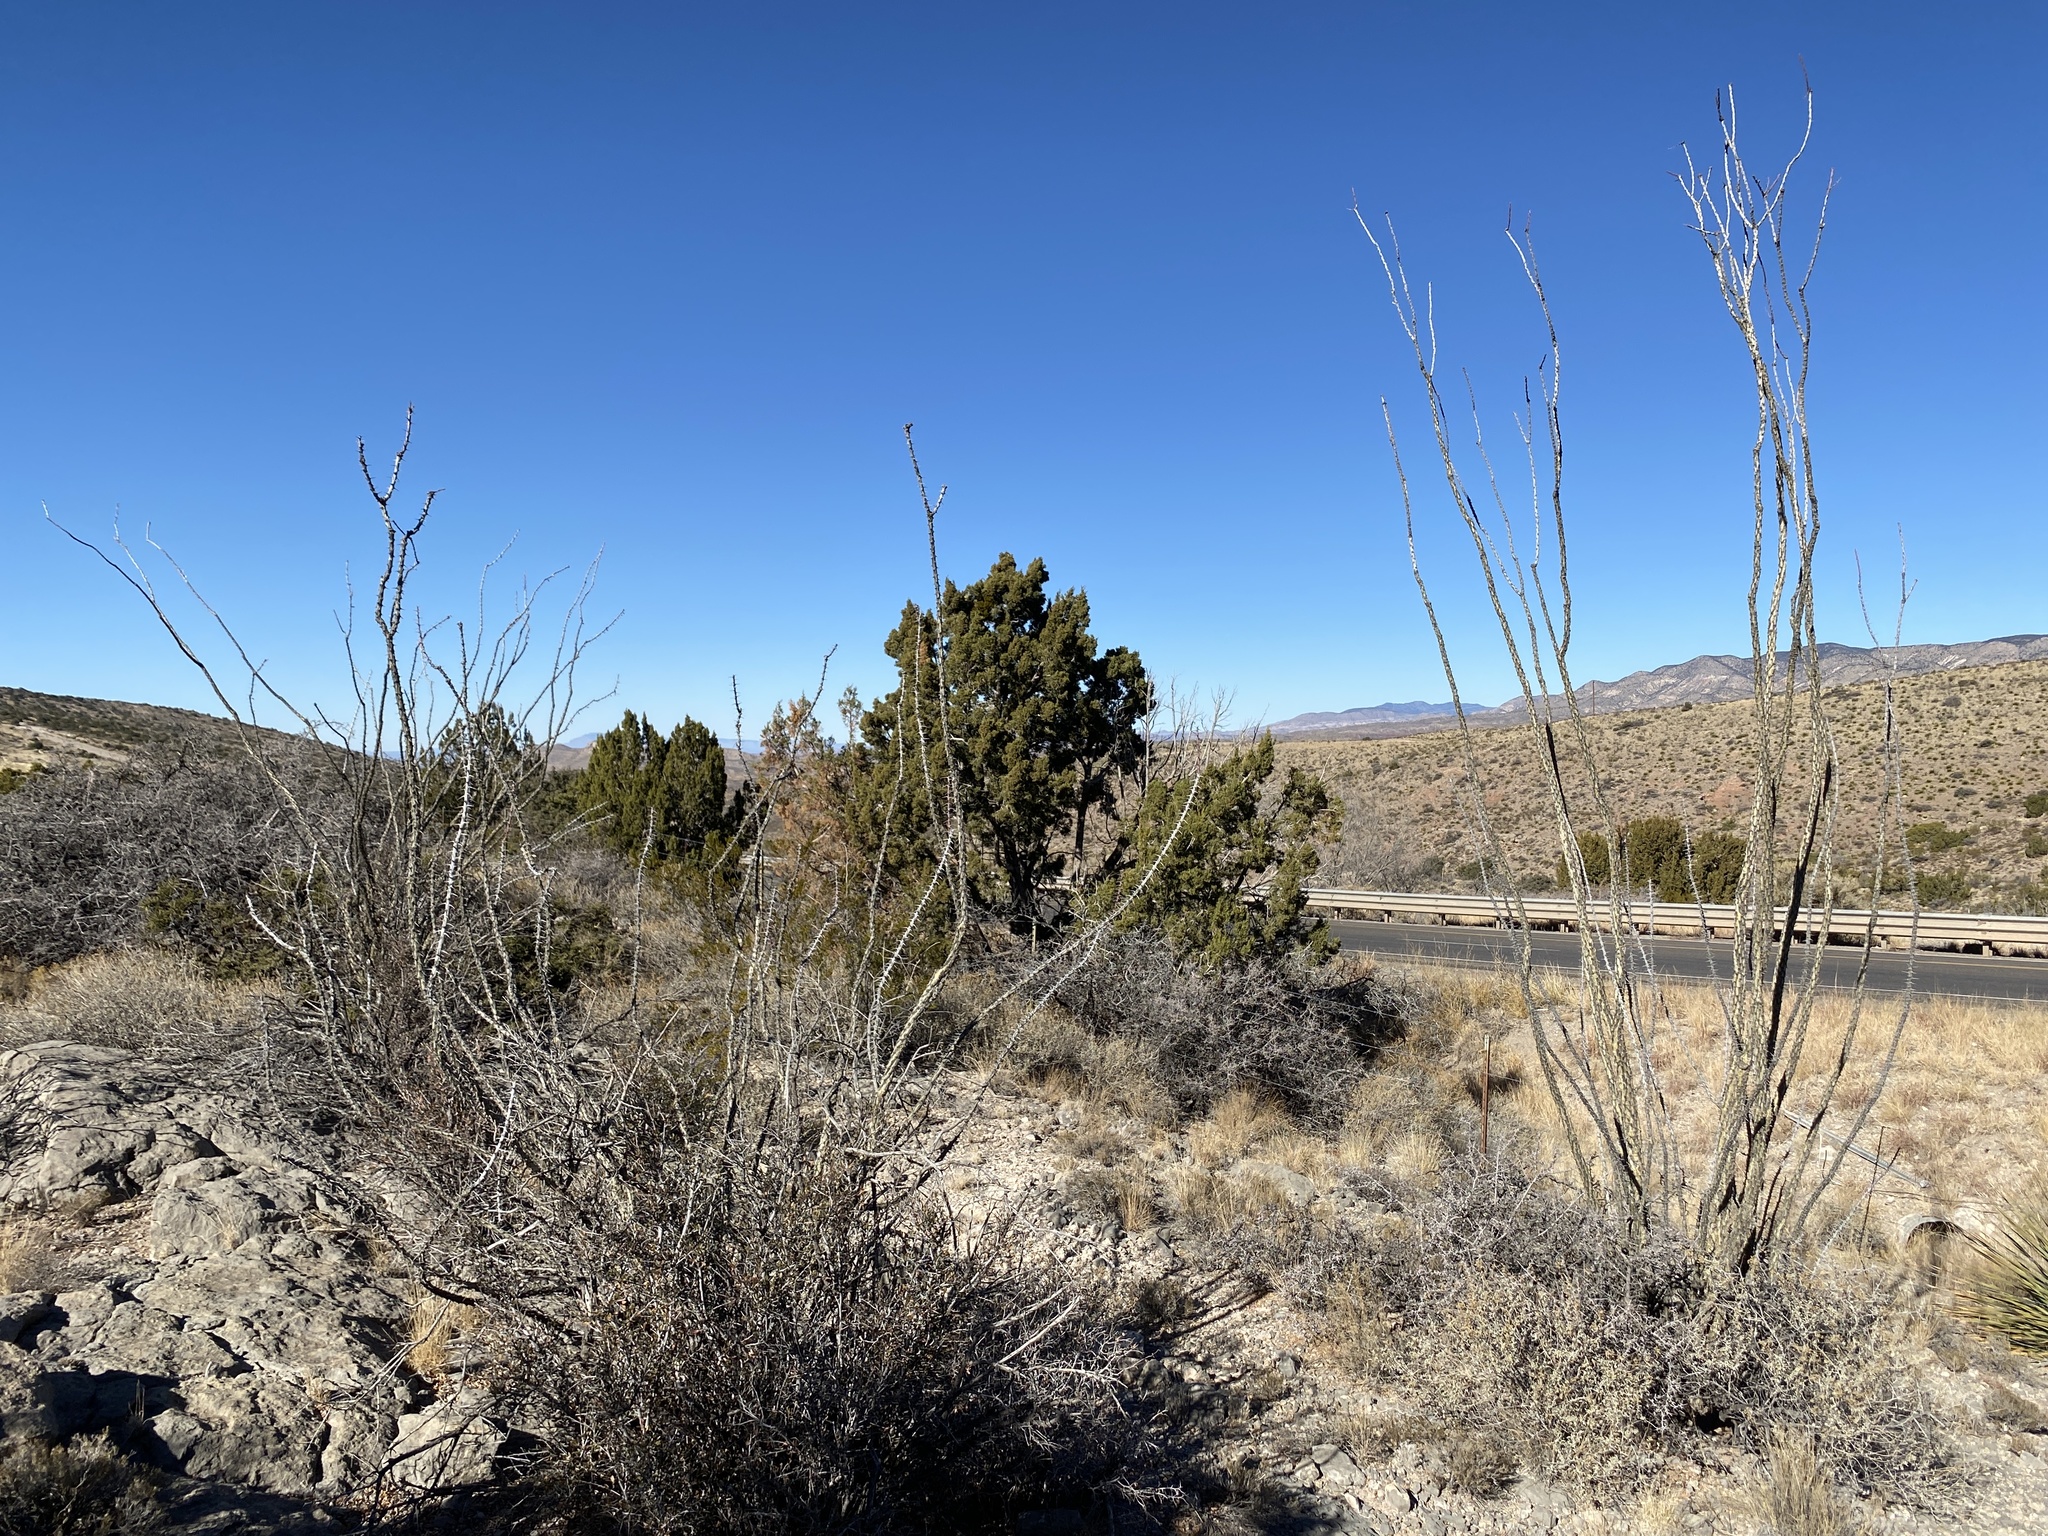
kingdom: Plantae
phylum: Tracheophyta
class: Magnoliopsida
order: Ericales
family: Fouquieriaceae
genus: Fouquieria
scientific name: Fouquieria splendens
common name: Vine-cactus
